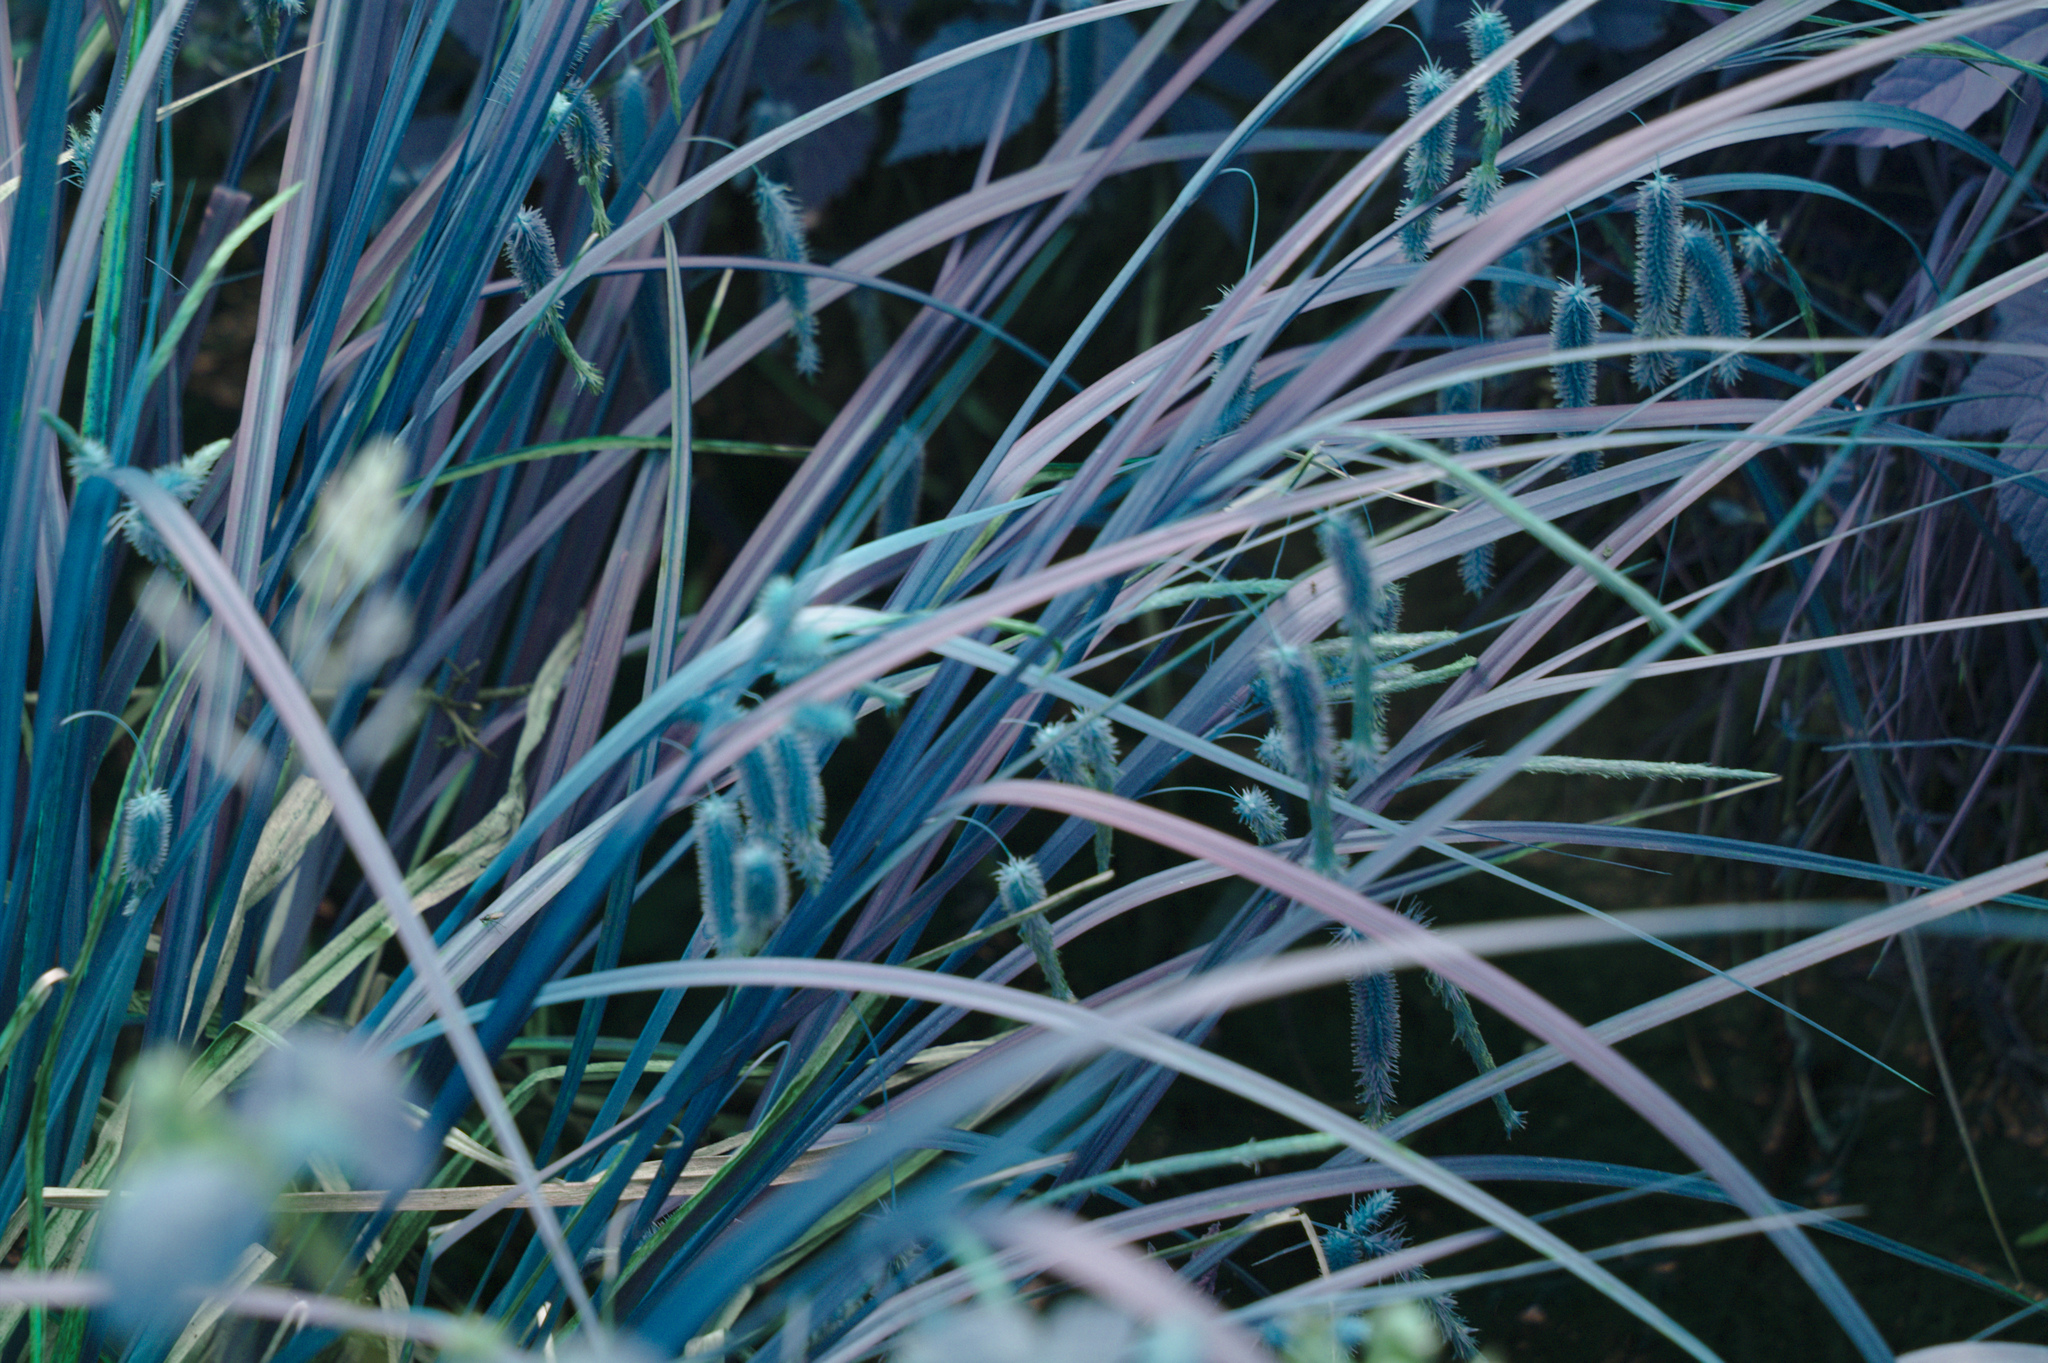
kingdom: Plantae
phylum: Tracheophyta
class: Liliopsida
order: Poales
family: Cyperaceae
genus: Carex
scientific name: Carex pseudocyperus
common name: Cyperus sedge
